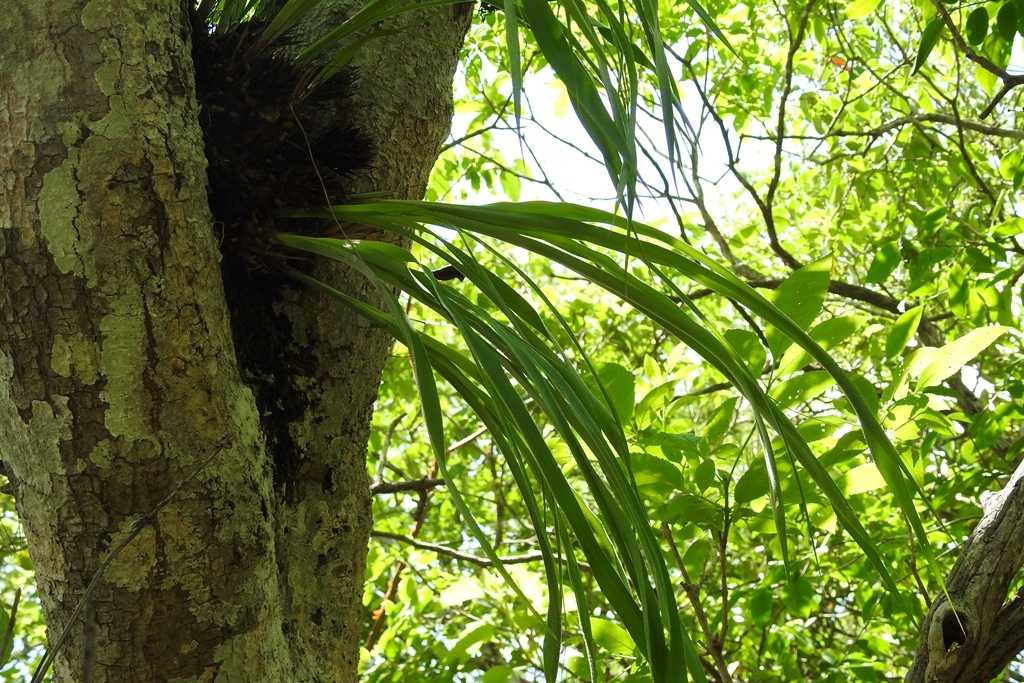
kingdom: Plantae
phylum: Tracheophyta
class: Liliopsida
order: Poales
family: Bromeliaceae
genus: Pitcairnia
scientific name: Pitcairnia heterophylla
